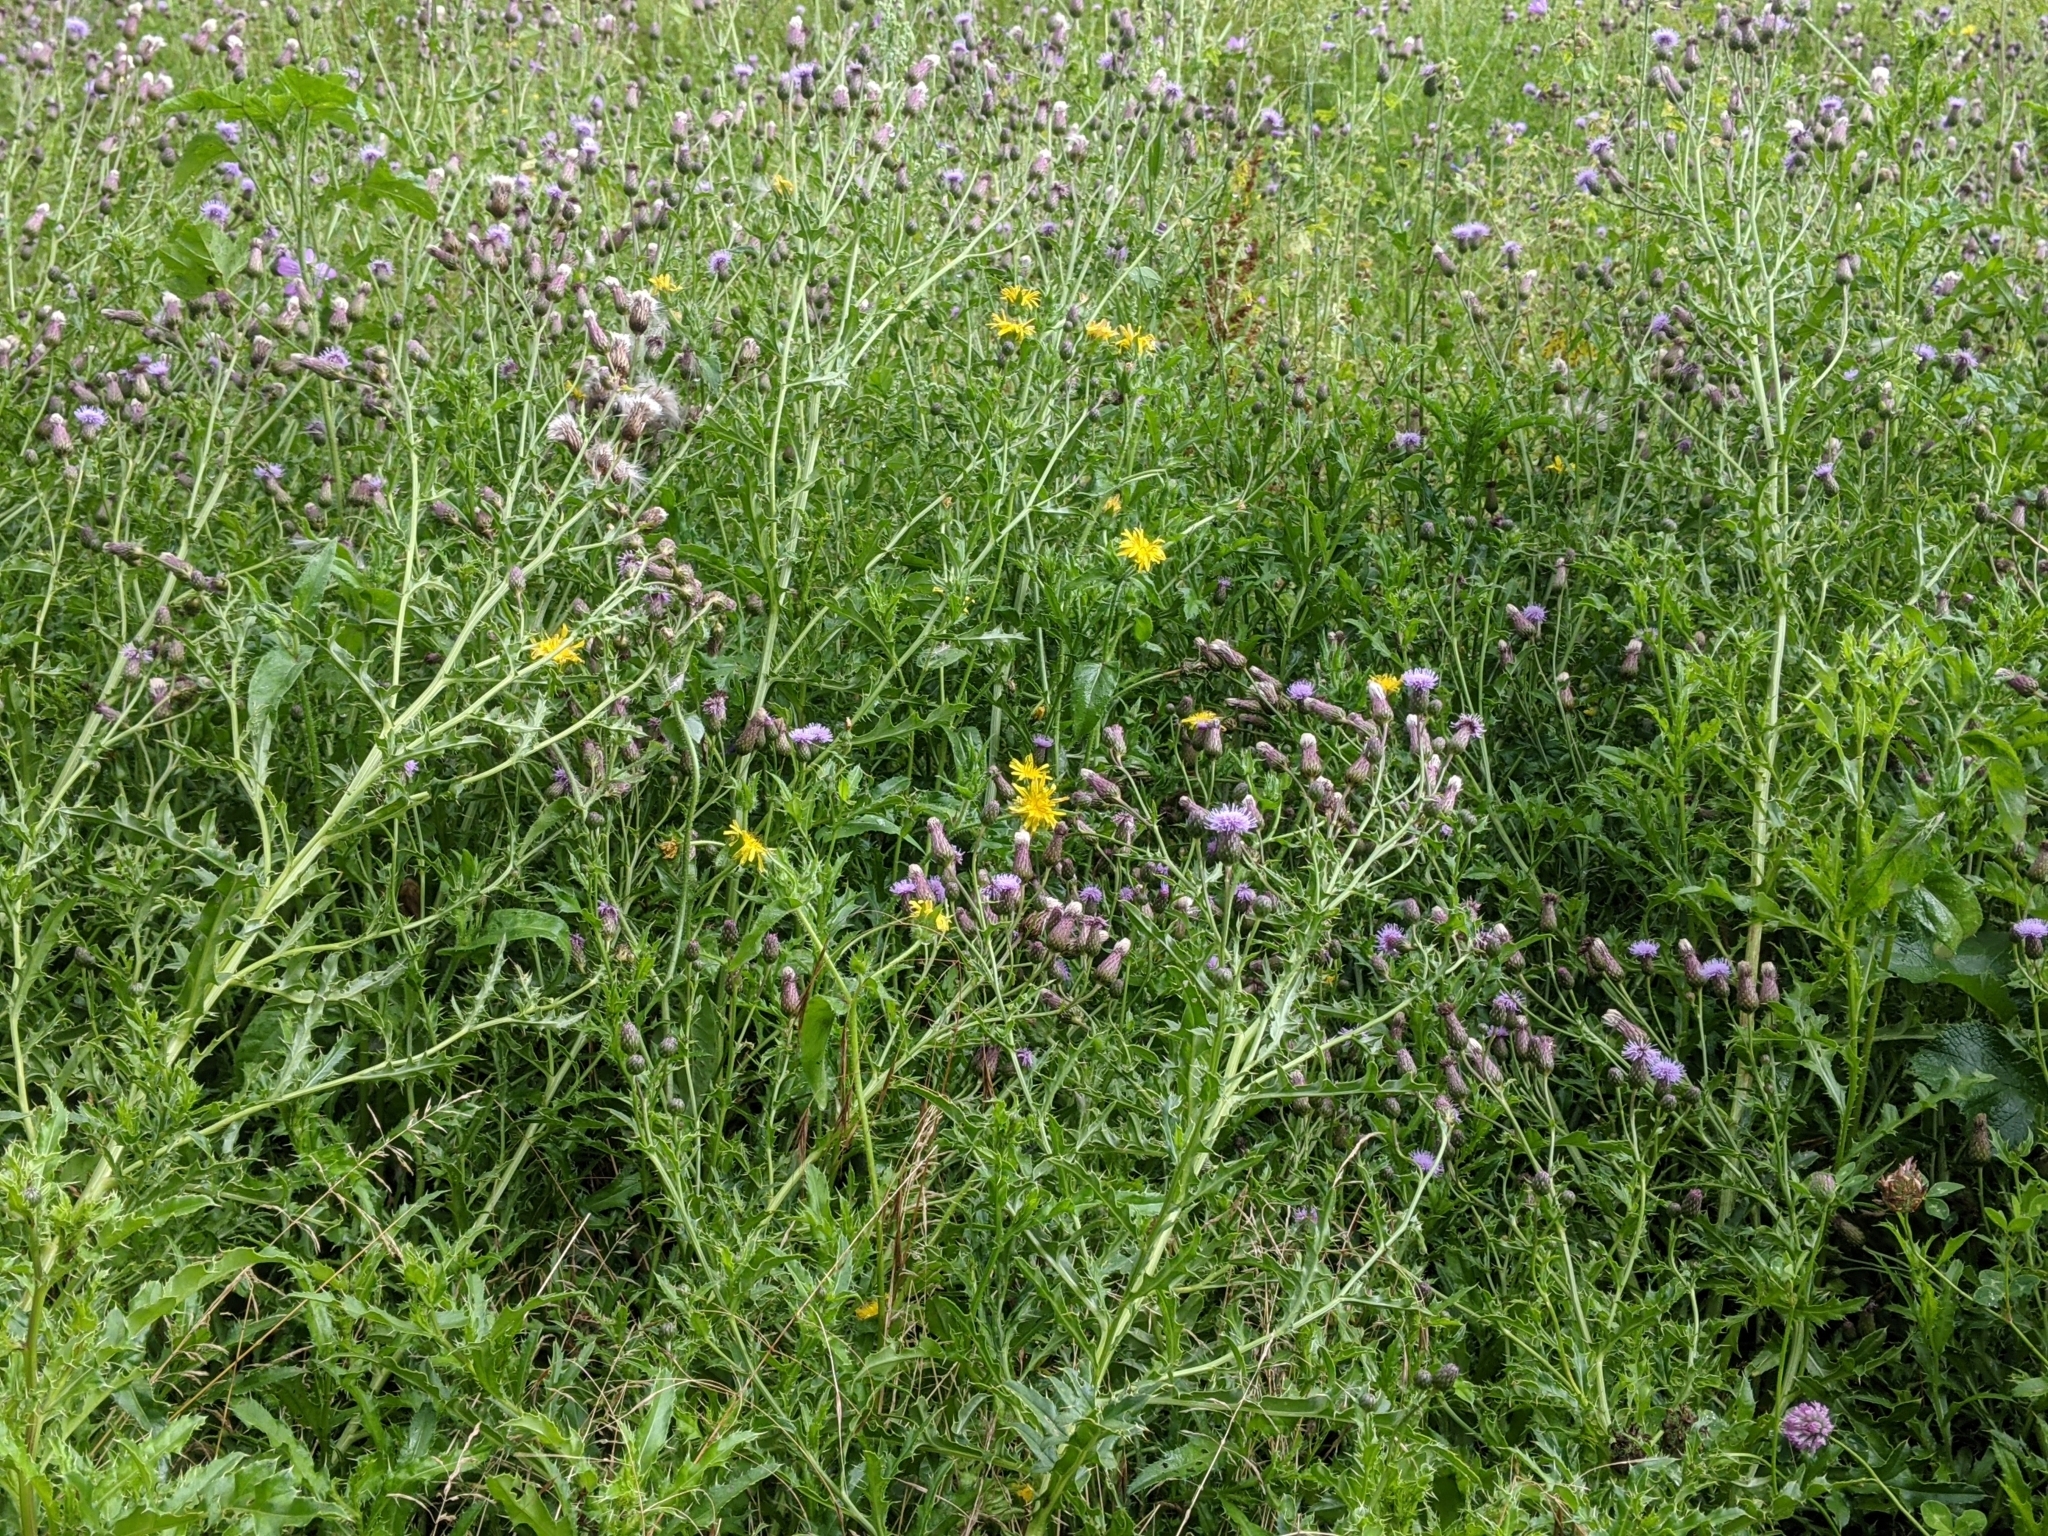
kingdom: Plantae
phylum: Tracheophyta
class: Magnoliopsida
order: Asterales
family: Asteraceae
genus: Cirsium
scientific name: Cirsium arvense
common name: Creeping thistle
